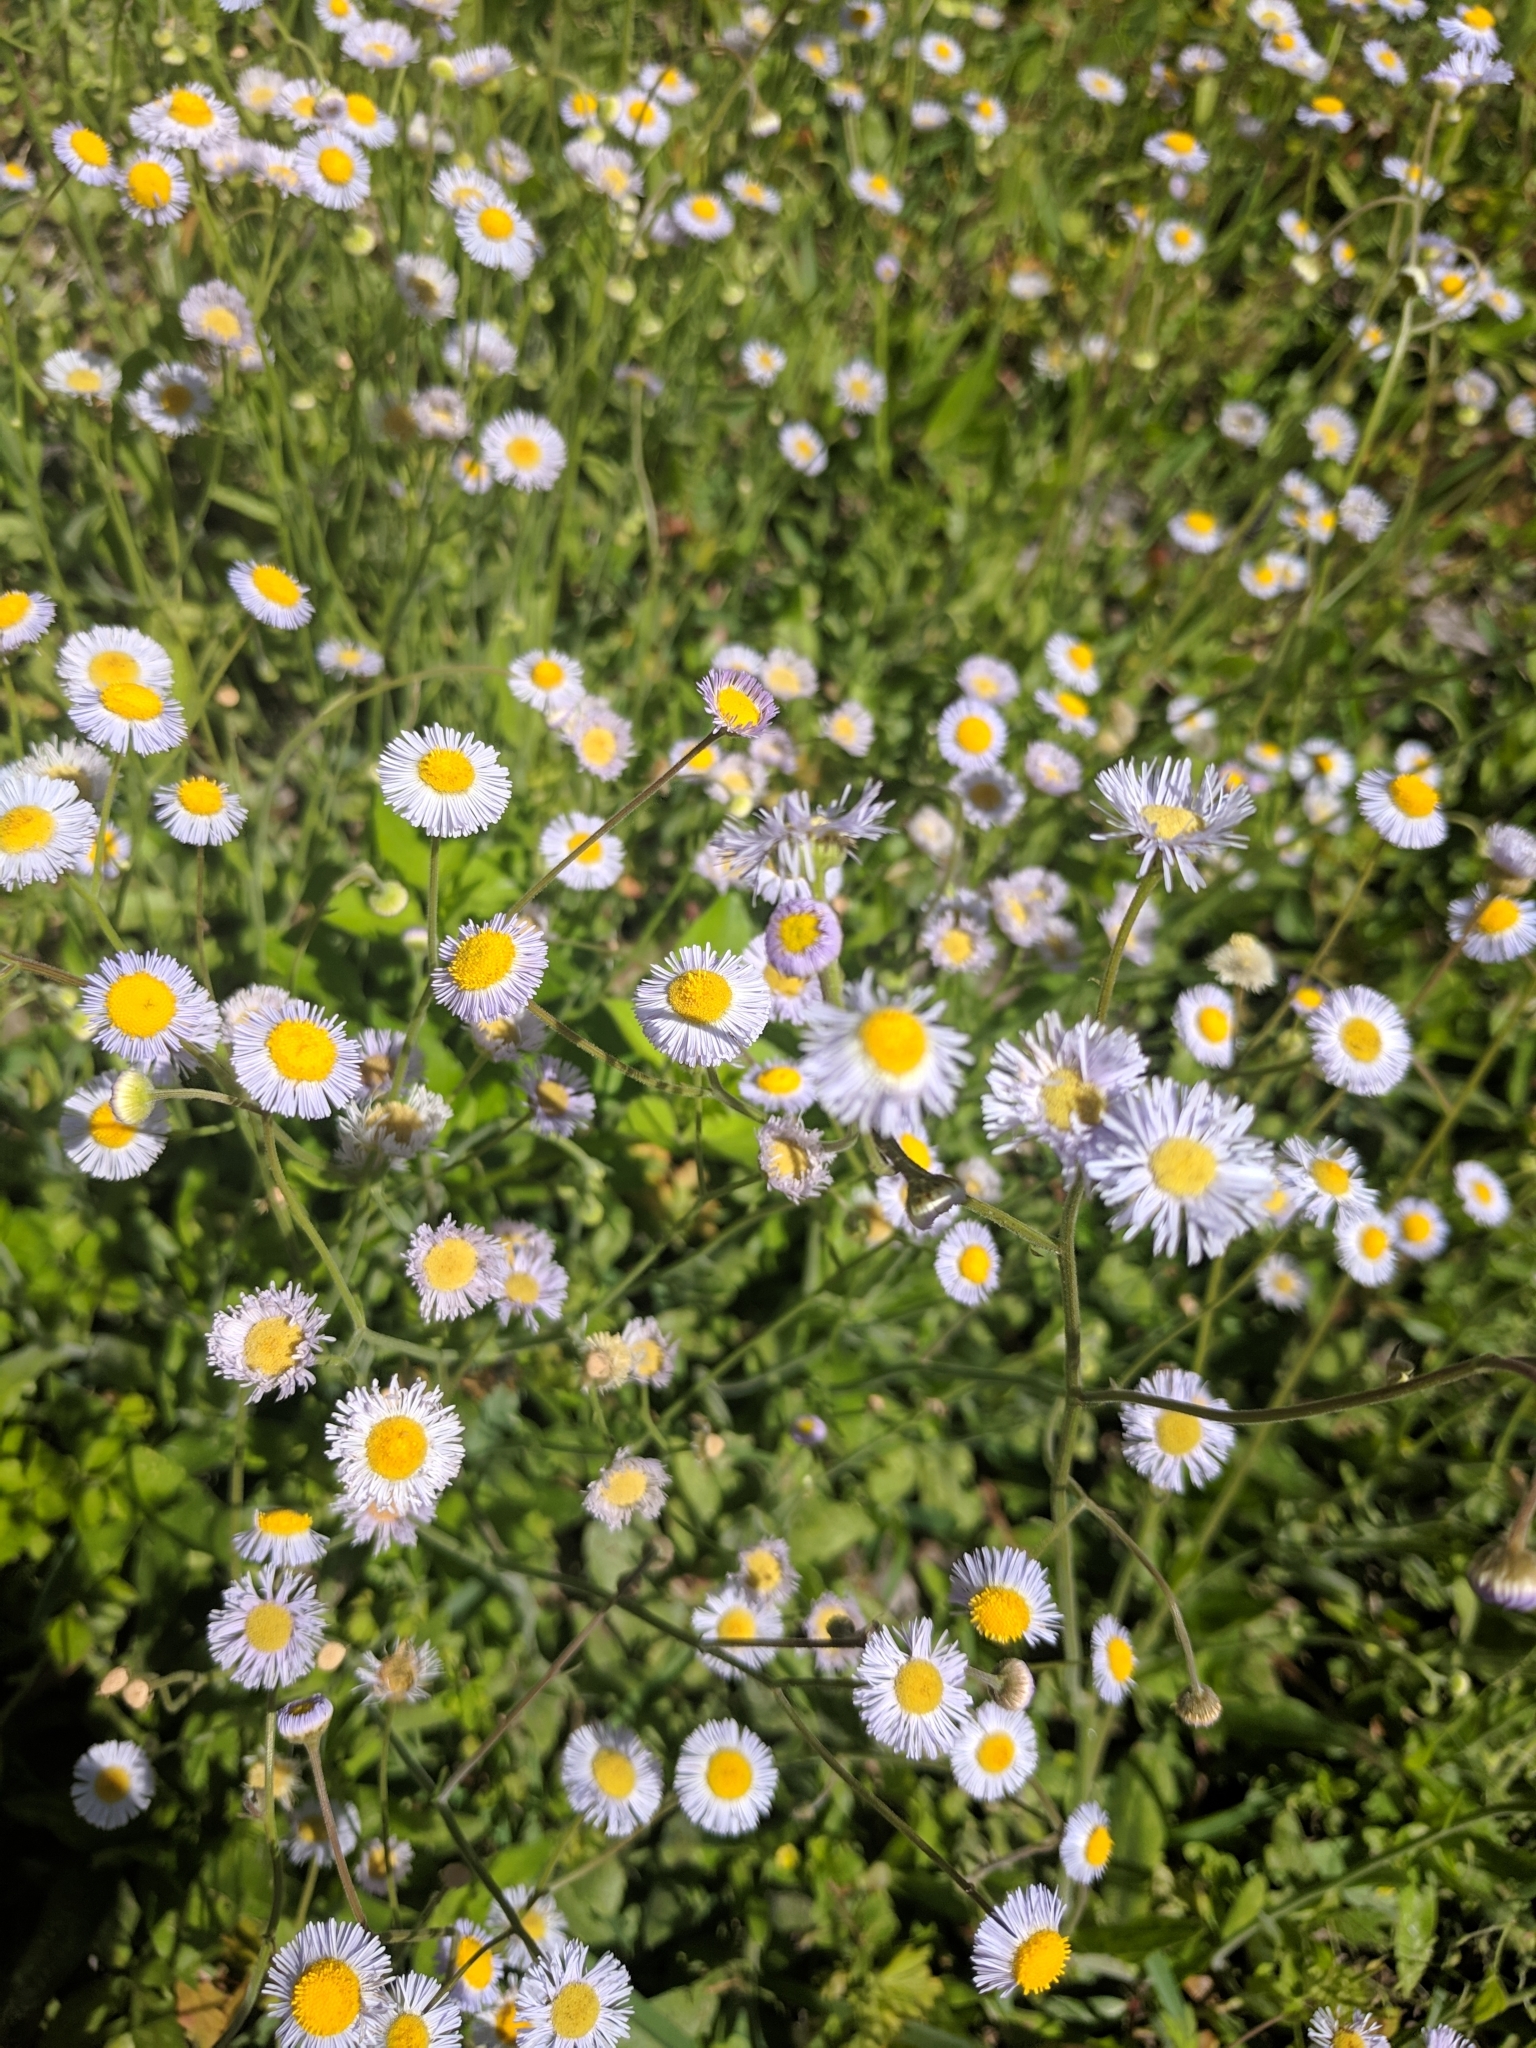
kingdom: Plantae
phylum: Tracheophyta
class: Magnoliopsida
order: Asterales
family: Asteraceae
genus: Erigeron
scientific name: Erigeron quercifolius
